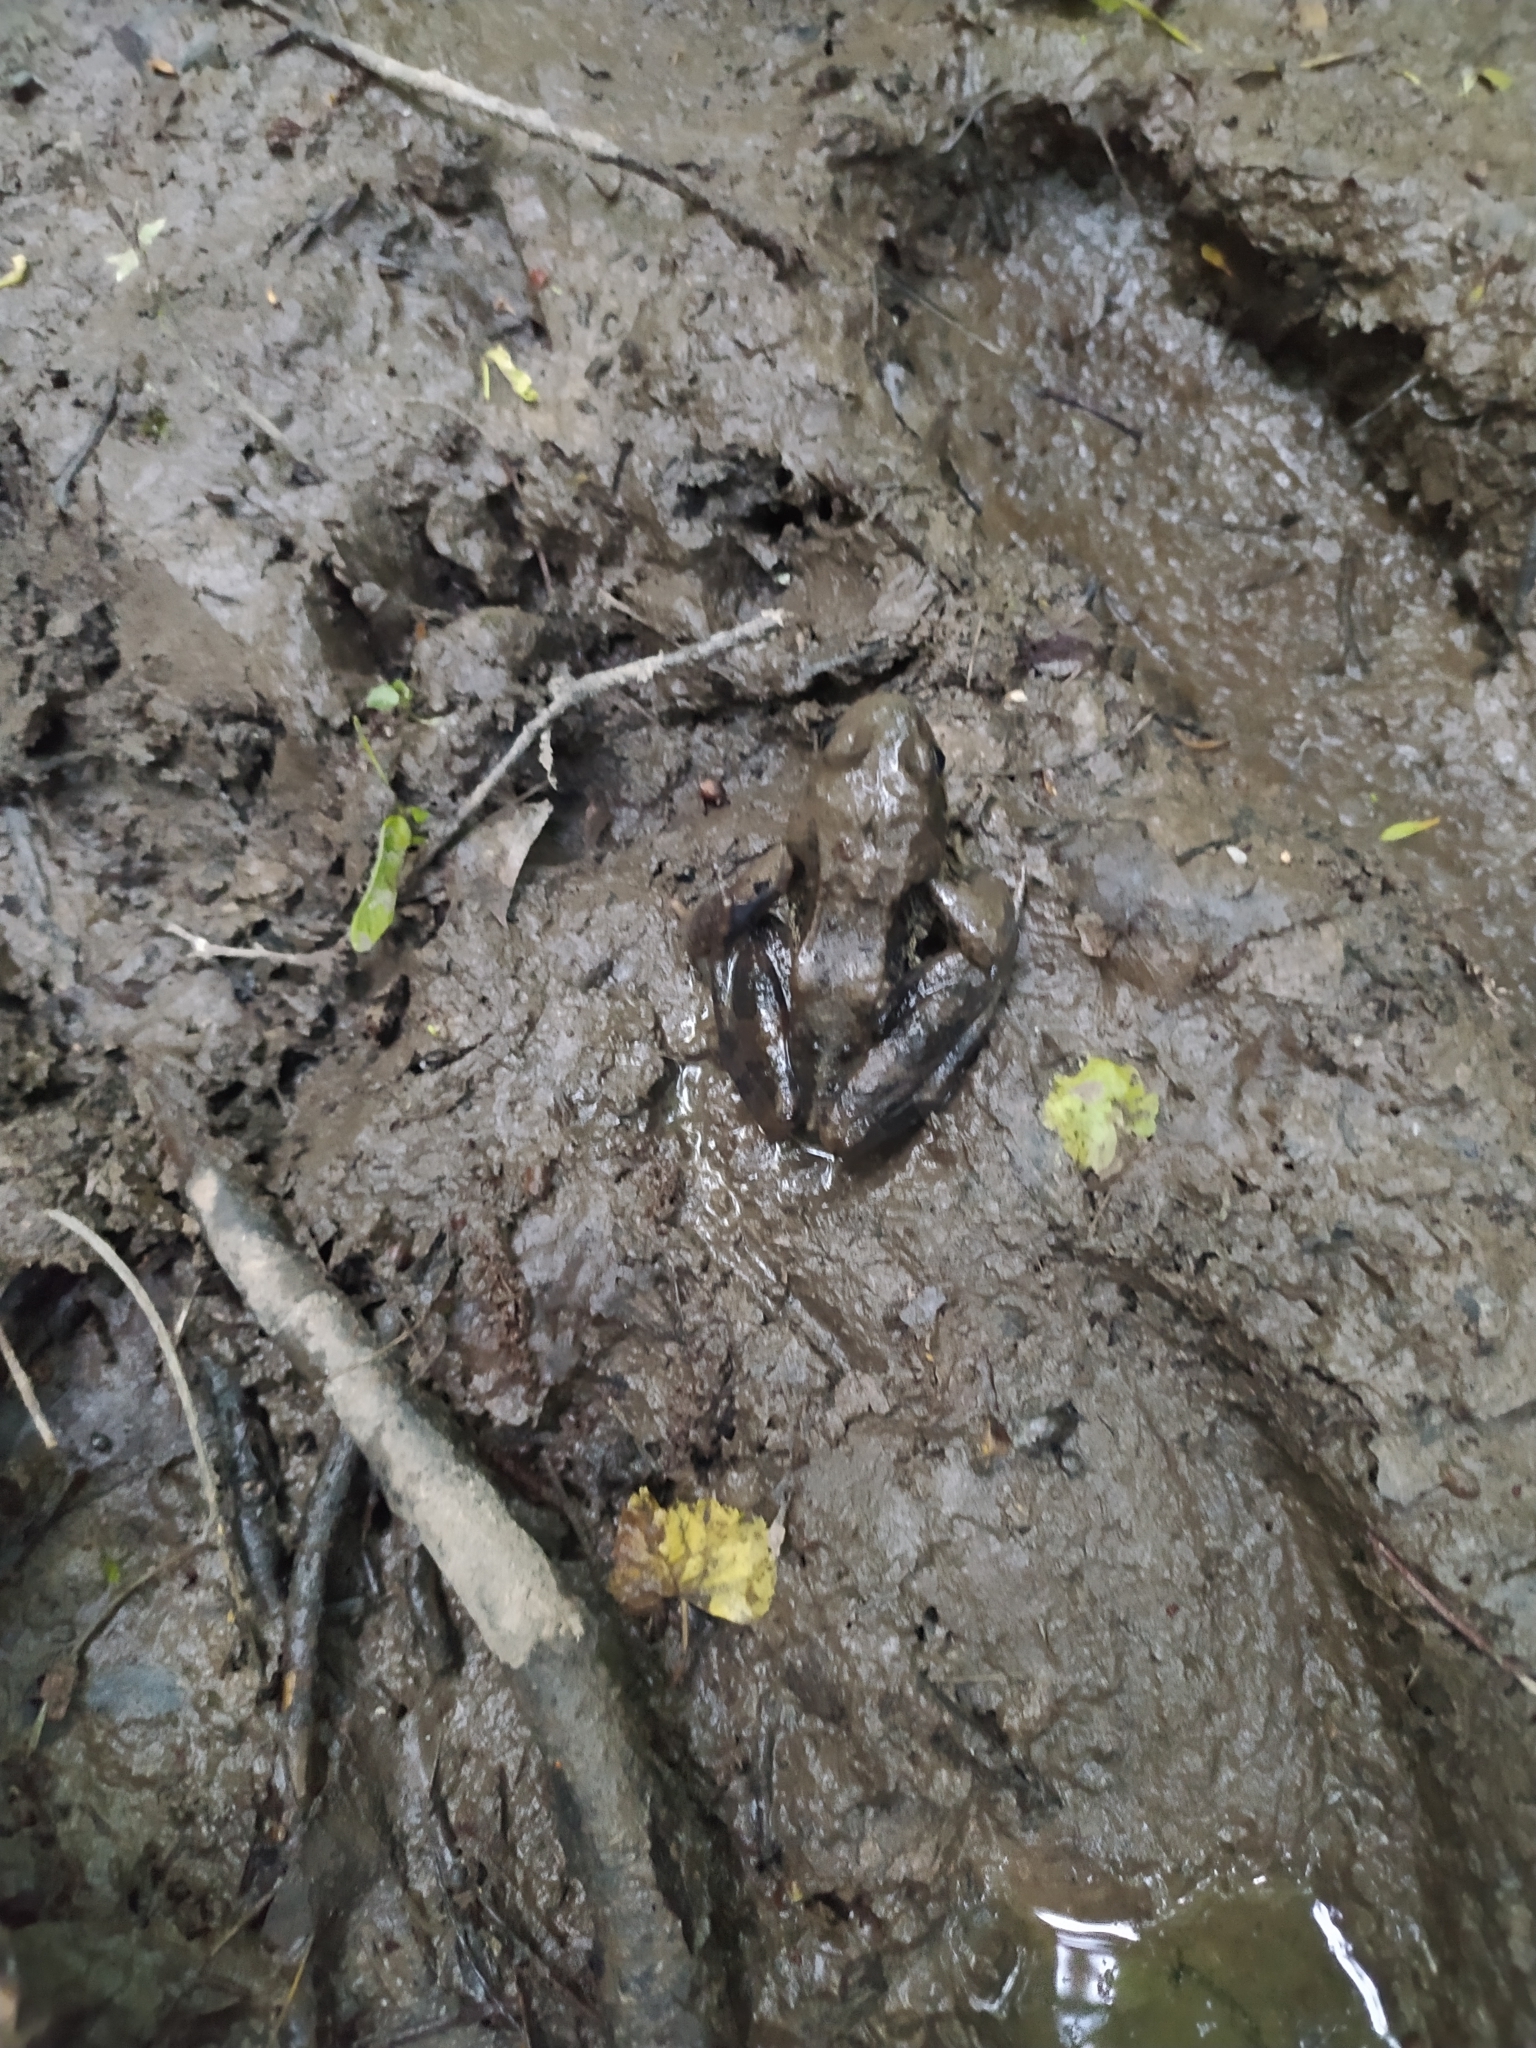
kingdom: Animalia
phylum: Chordata
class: Amphibia
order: Anura
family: Ranidae
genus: Rana
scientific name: Rana temporaria
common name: Common frog
